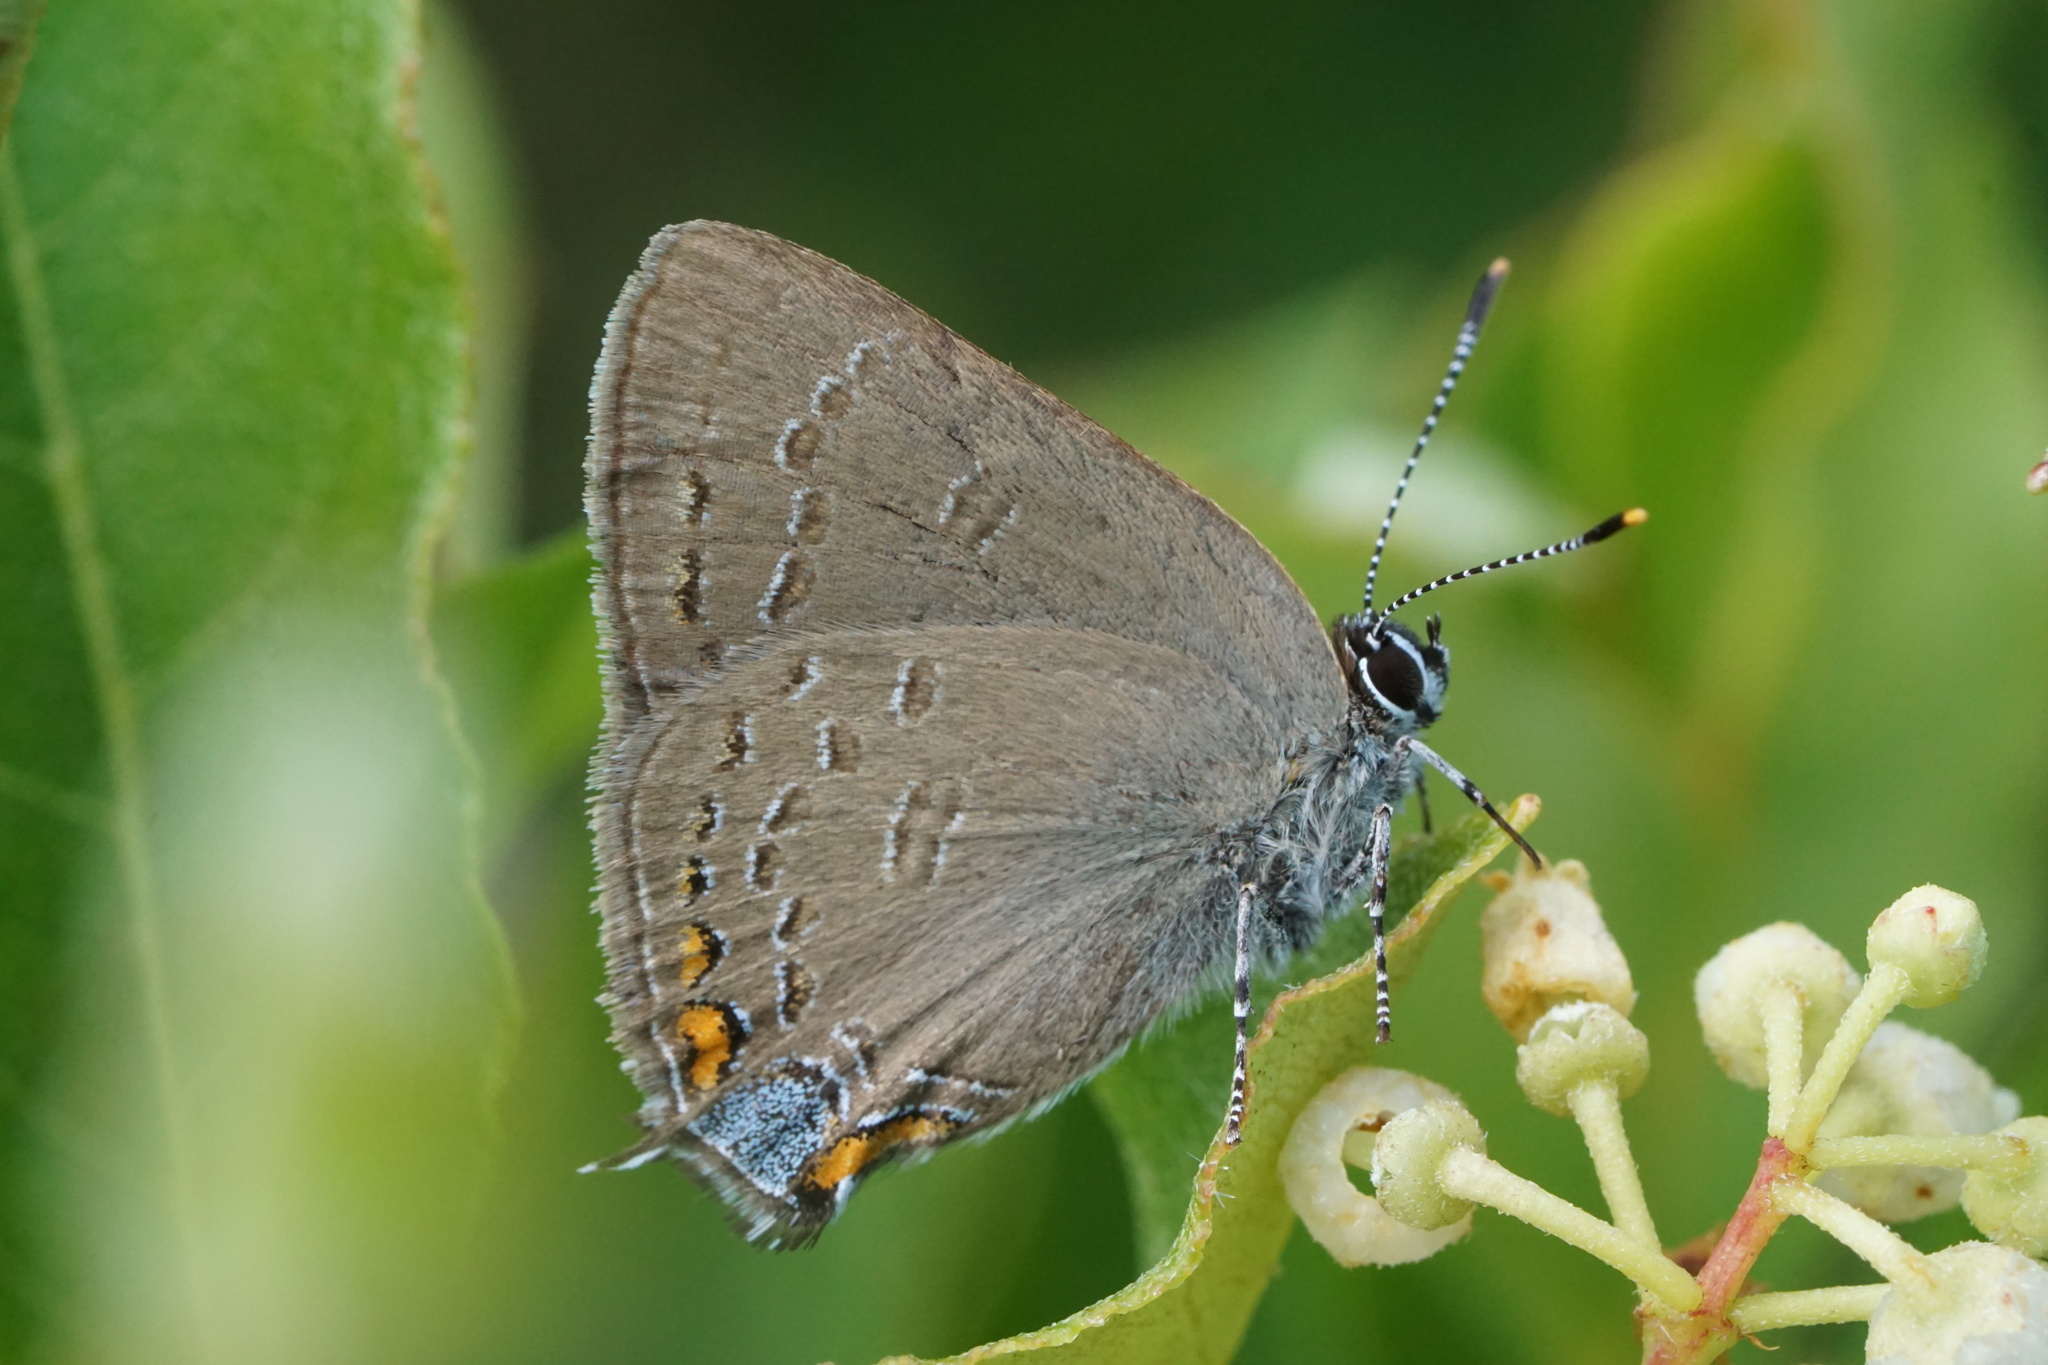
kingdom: Animalia
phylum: Arthropoda
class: Insecta
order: Lepidoptera
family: Lycaenidae
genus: Satyrium
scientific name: Satyrium edwardsii
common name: Edwards' hairstreak
